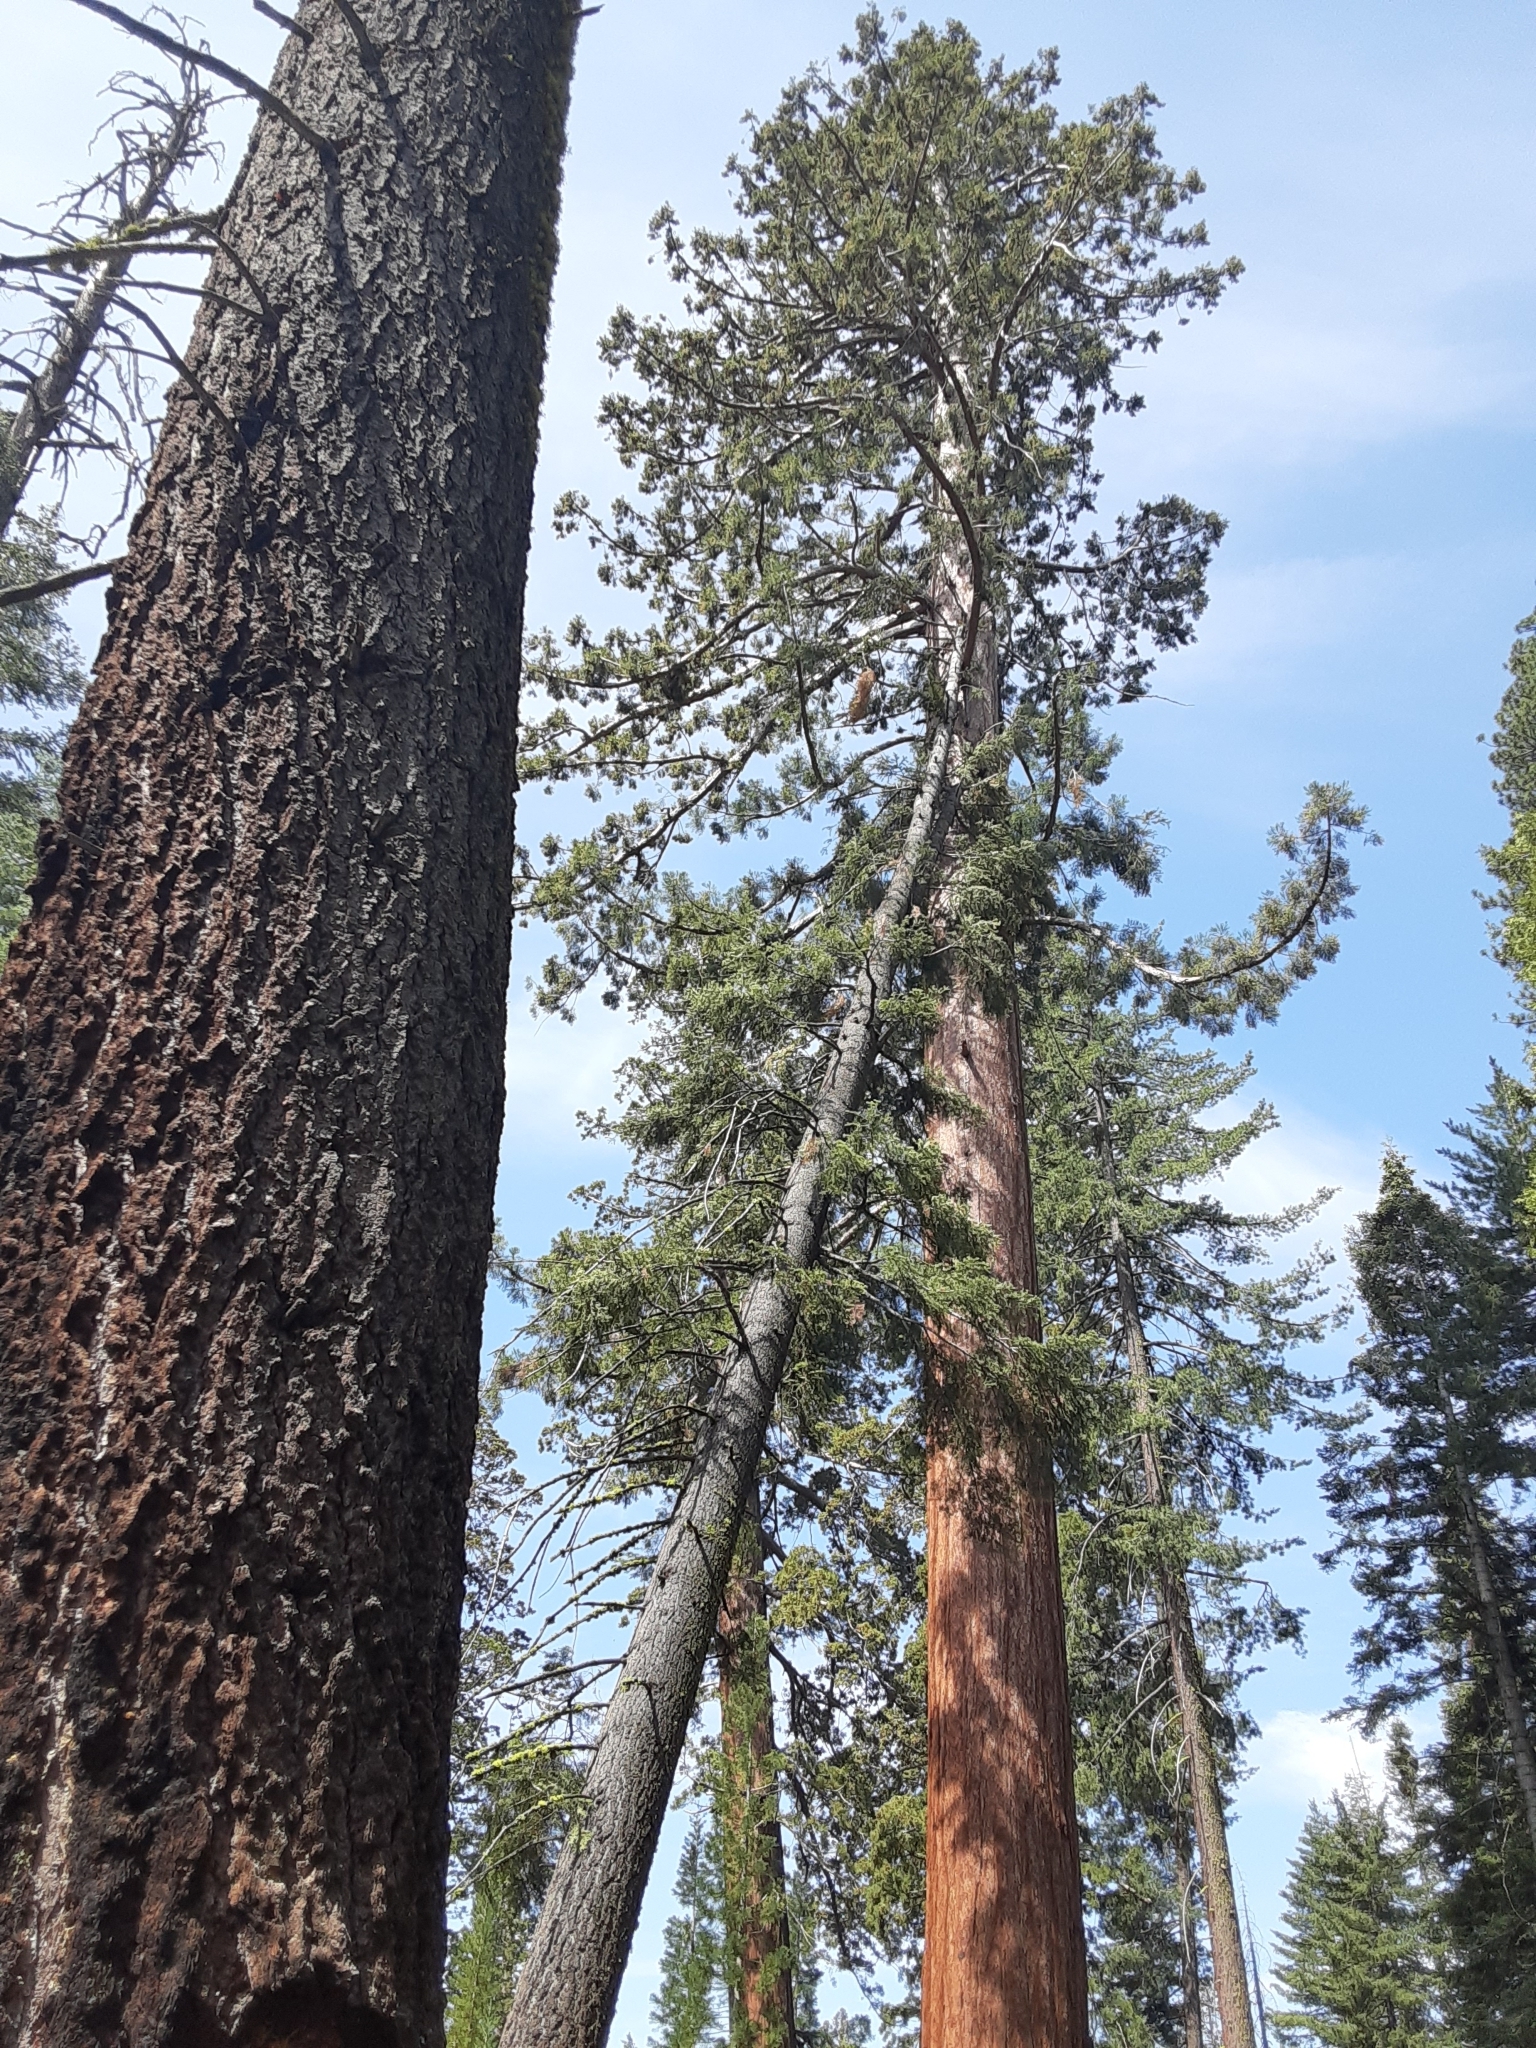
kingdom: Plantae
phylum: Tracheophyta
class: Pinopsida
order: Pinales
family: Cupressaceae
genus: Sequoiadendron
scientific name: Sequoiadendron giganteum
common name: Wellingtonia
